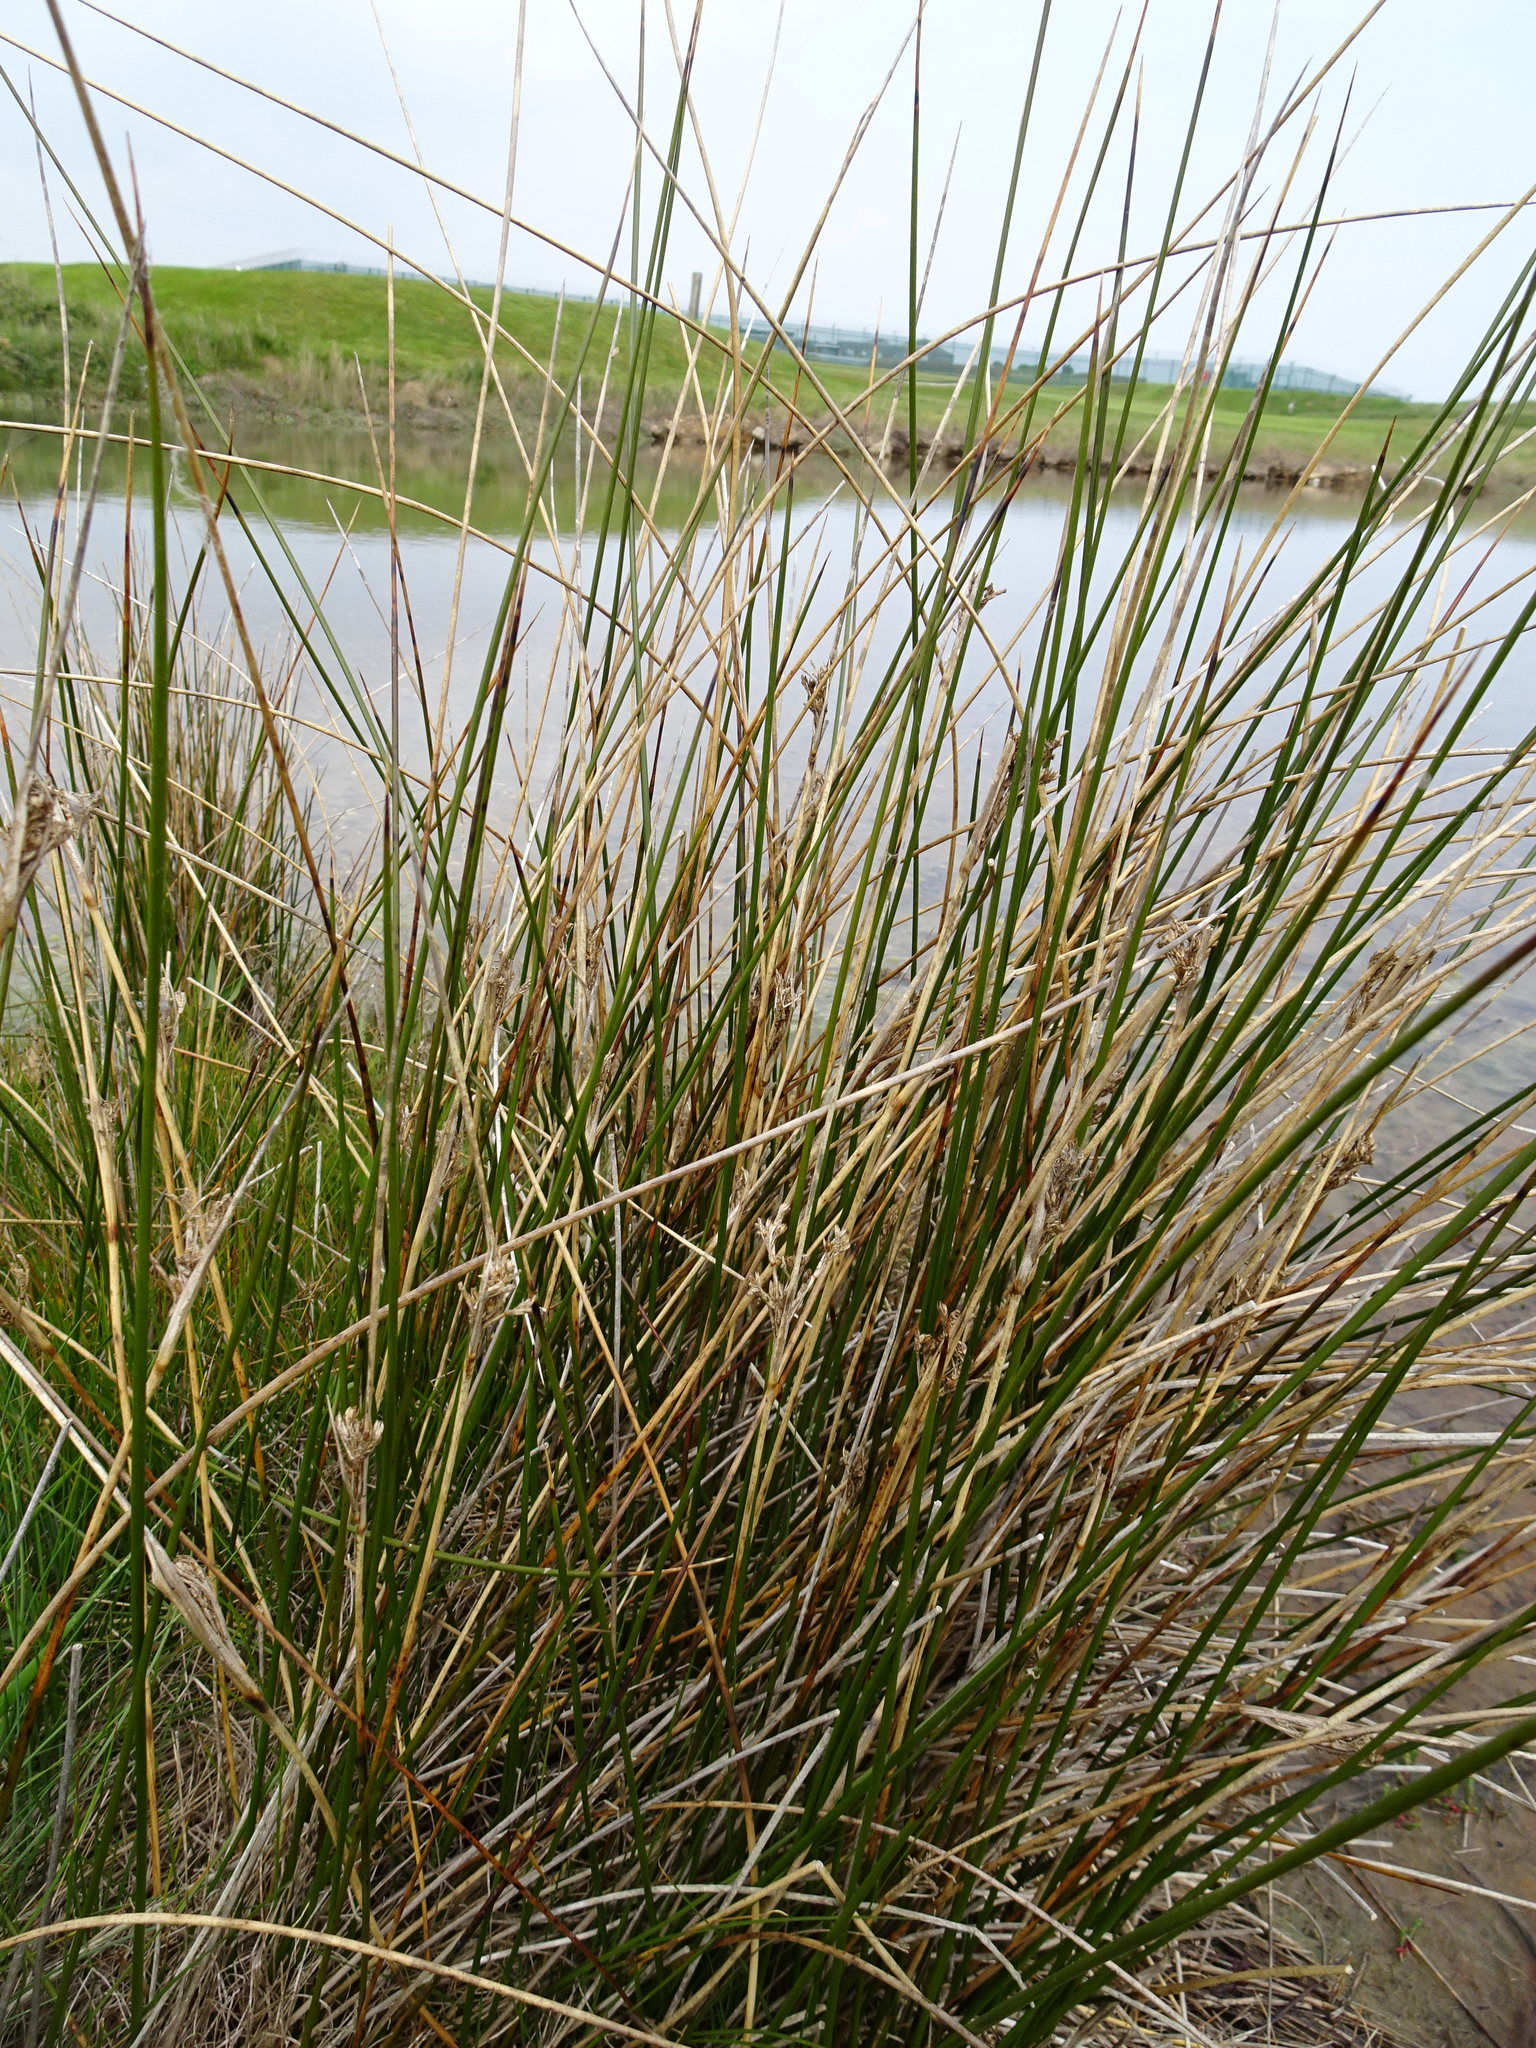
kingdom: Plantae
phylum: Tracheophyta
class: Liliopsida
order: Poales
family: Juncaceae
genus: Juncus
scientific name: Juncus maritimus
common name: Sea rush
